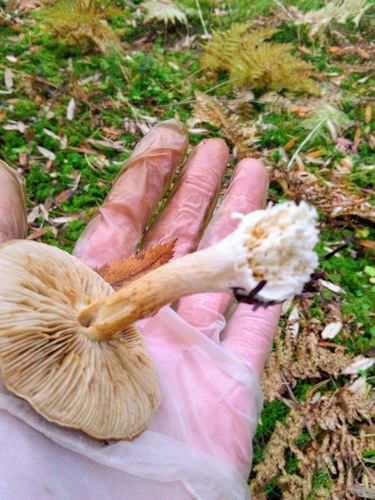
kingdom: Fungi
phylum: Basidiomycota
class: Agaricomycetes
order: Agaricales
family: Cortinariaceae
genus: Thaxterogaster
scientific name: Thaxterogaster multiformis
